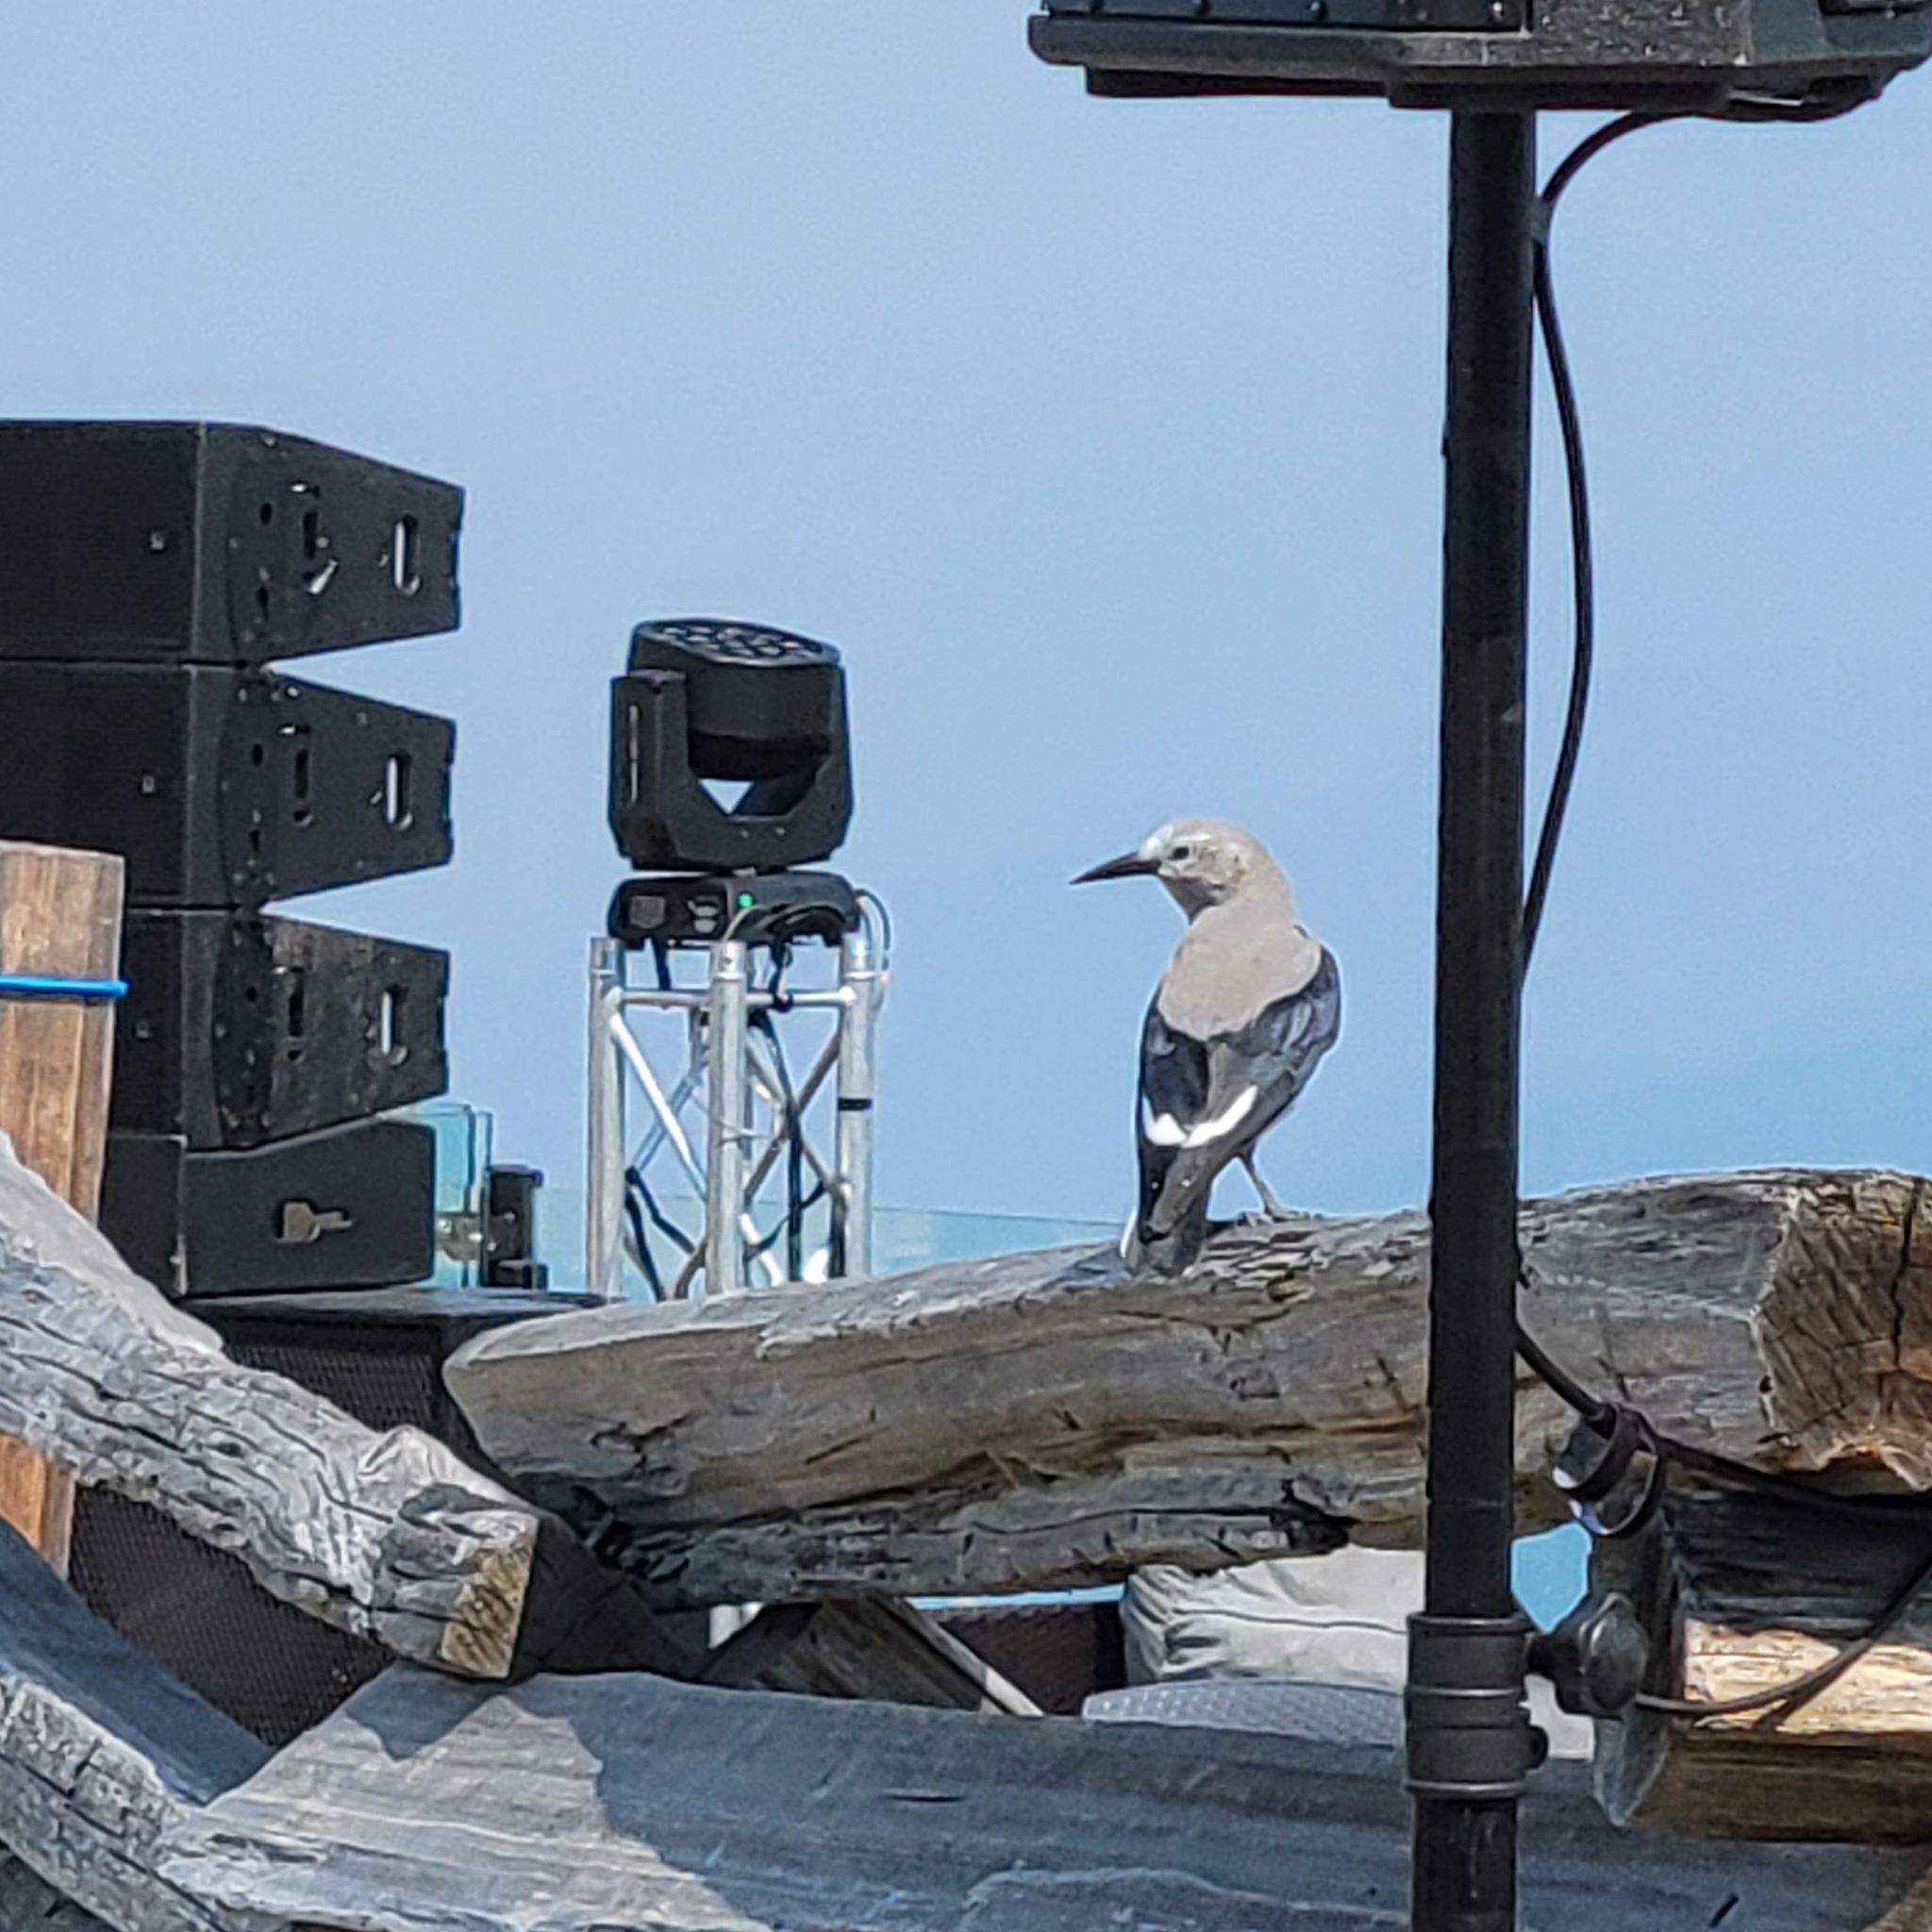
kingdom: Animalia
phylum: Chordata
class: Aves
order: Passeriformes
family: Corvidae
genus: Nucifraga
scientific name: Nucifraga columbiana
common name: Clark's nutcracker
